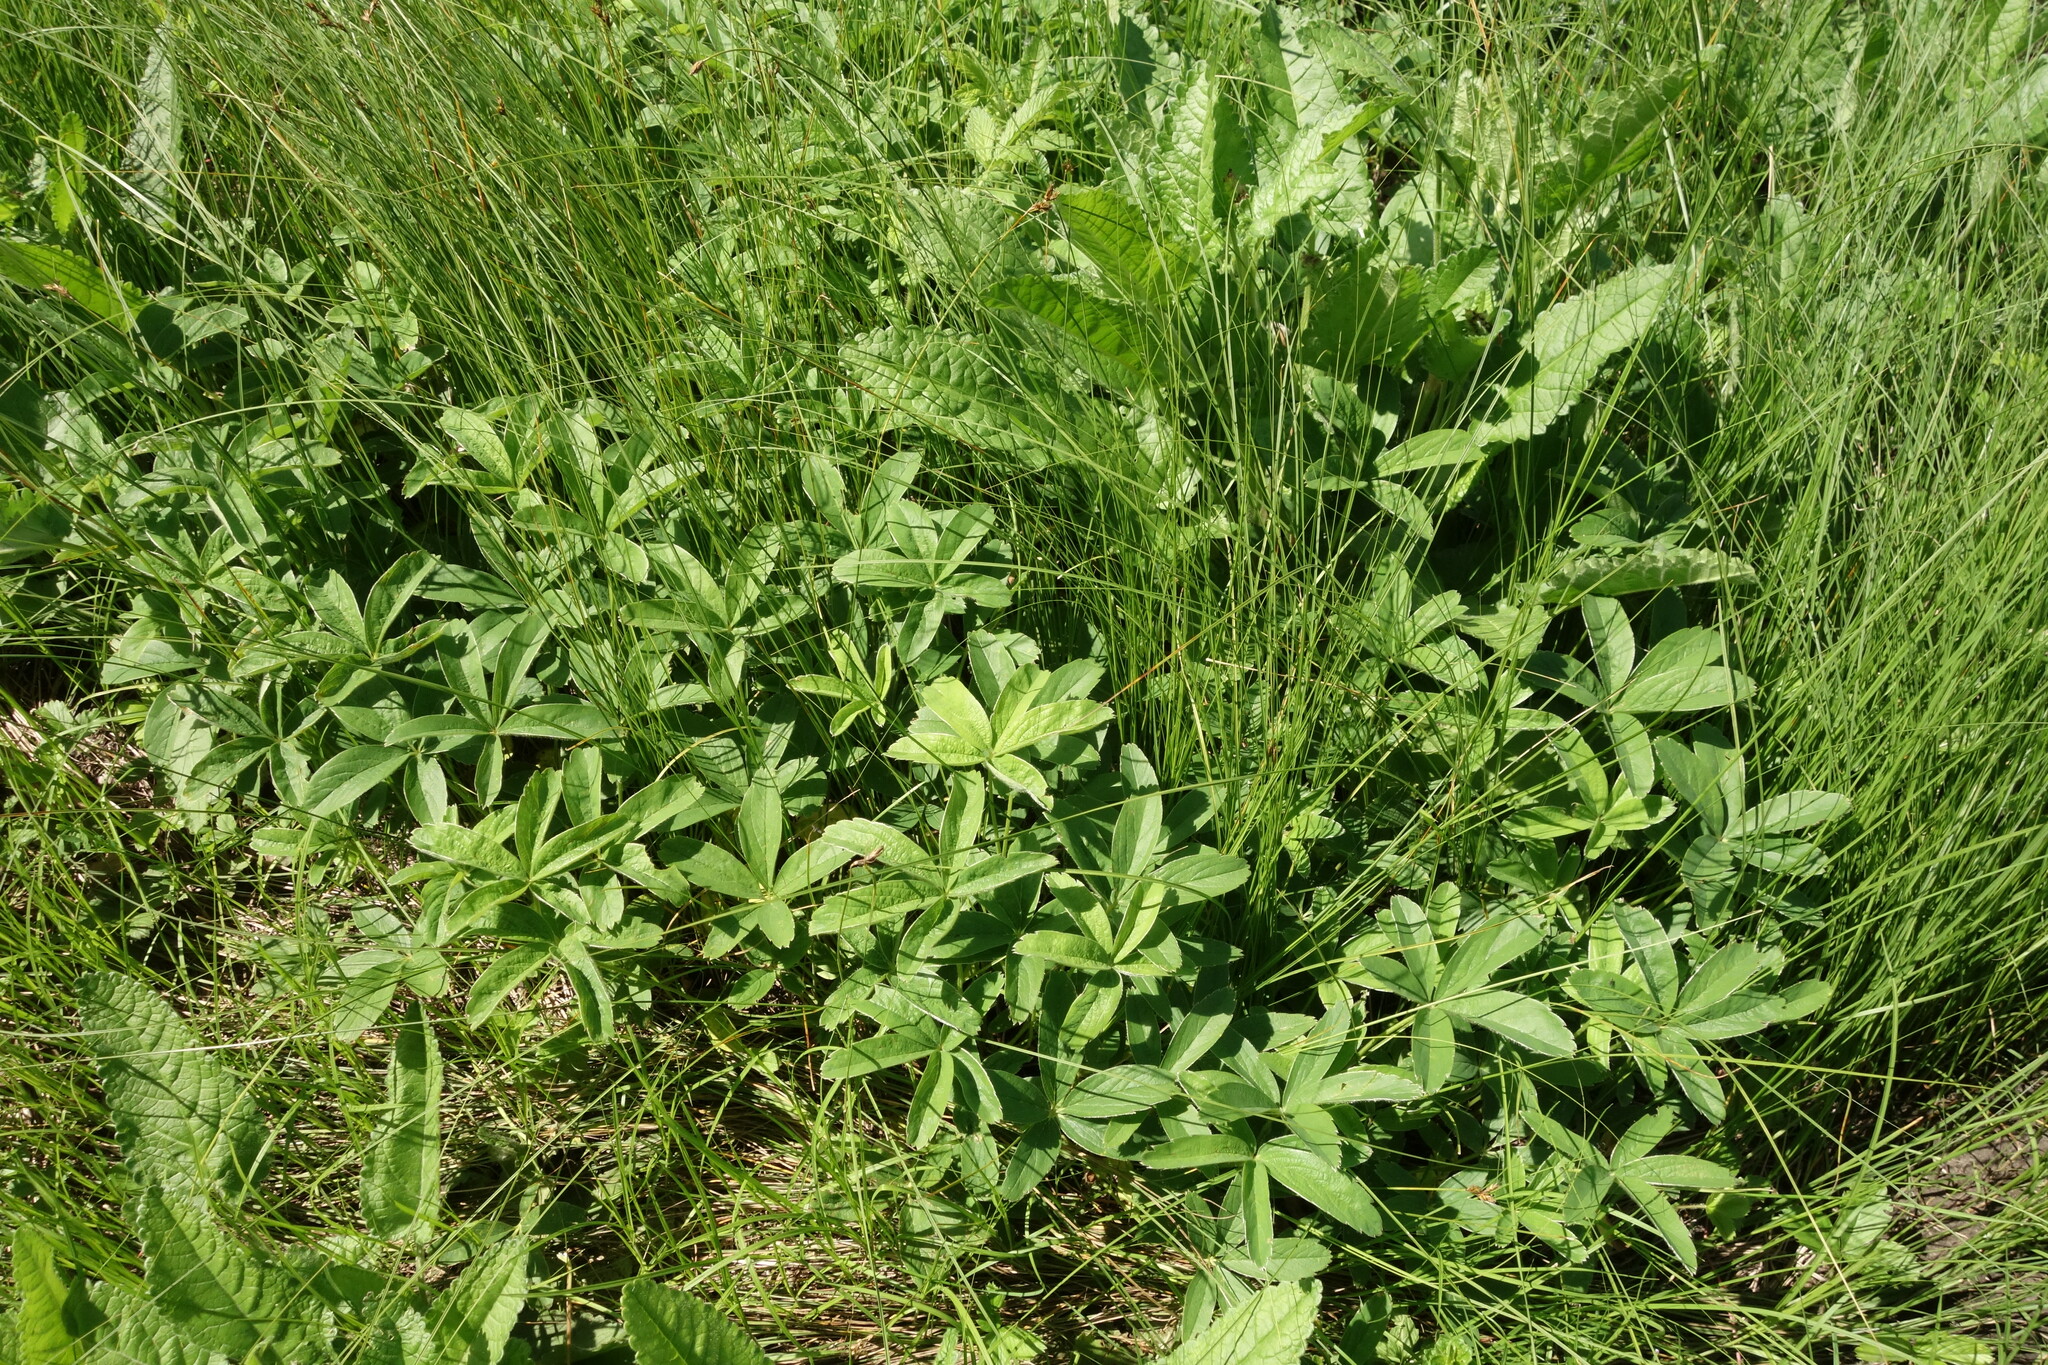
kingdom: Plantae
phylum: Tracheophyta
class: Magnoliopsida
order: Rosales
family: Rosaceae
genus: Potentilla
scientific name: Potentilla alba
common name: White cinquefoil
